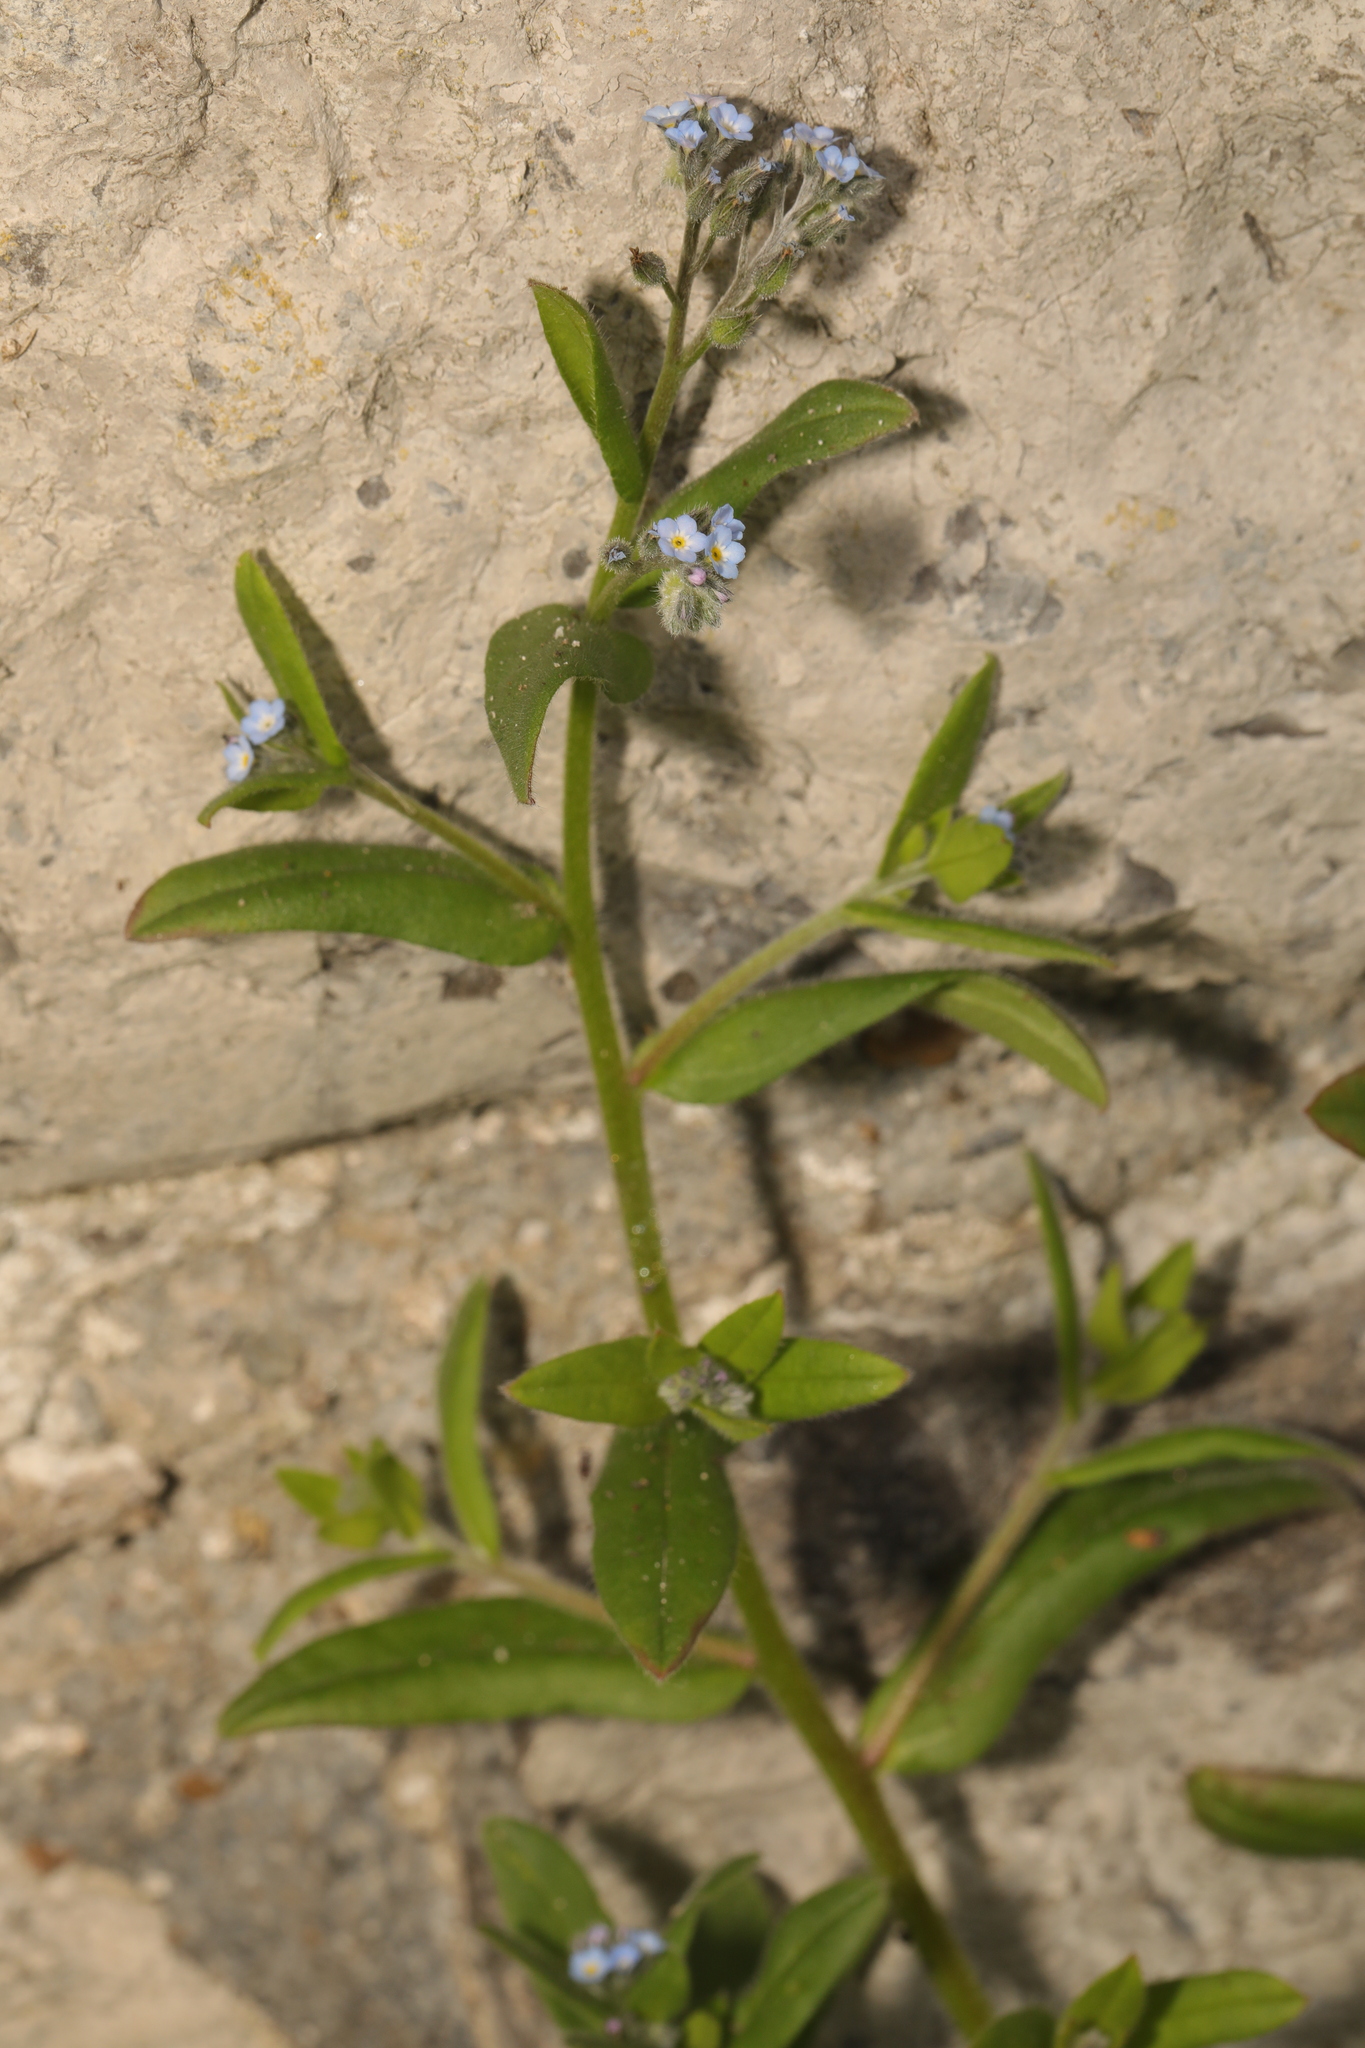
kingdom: Plantae
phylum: Tracheophyta
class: Magnoliopsida
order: Boraginales
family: Boraginaceae
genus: Myosotis
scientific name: Myosotis arvensis
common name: Field forget-me-not
